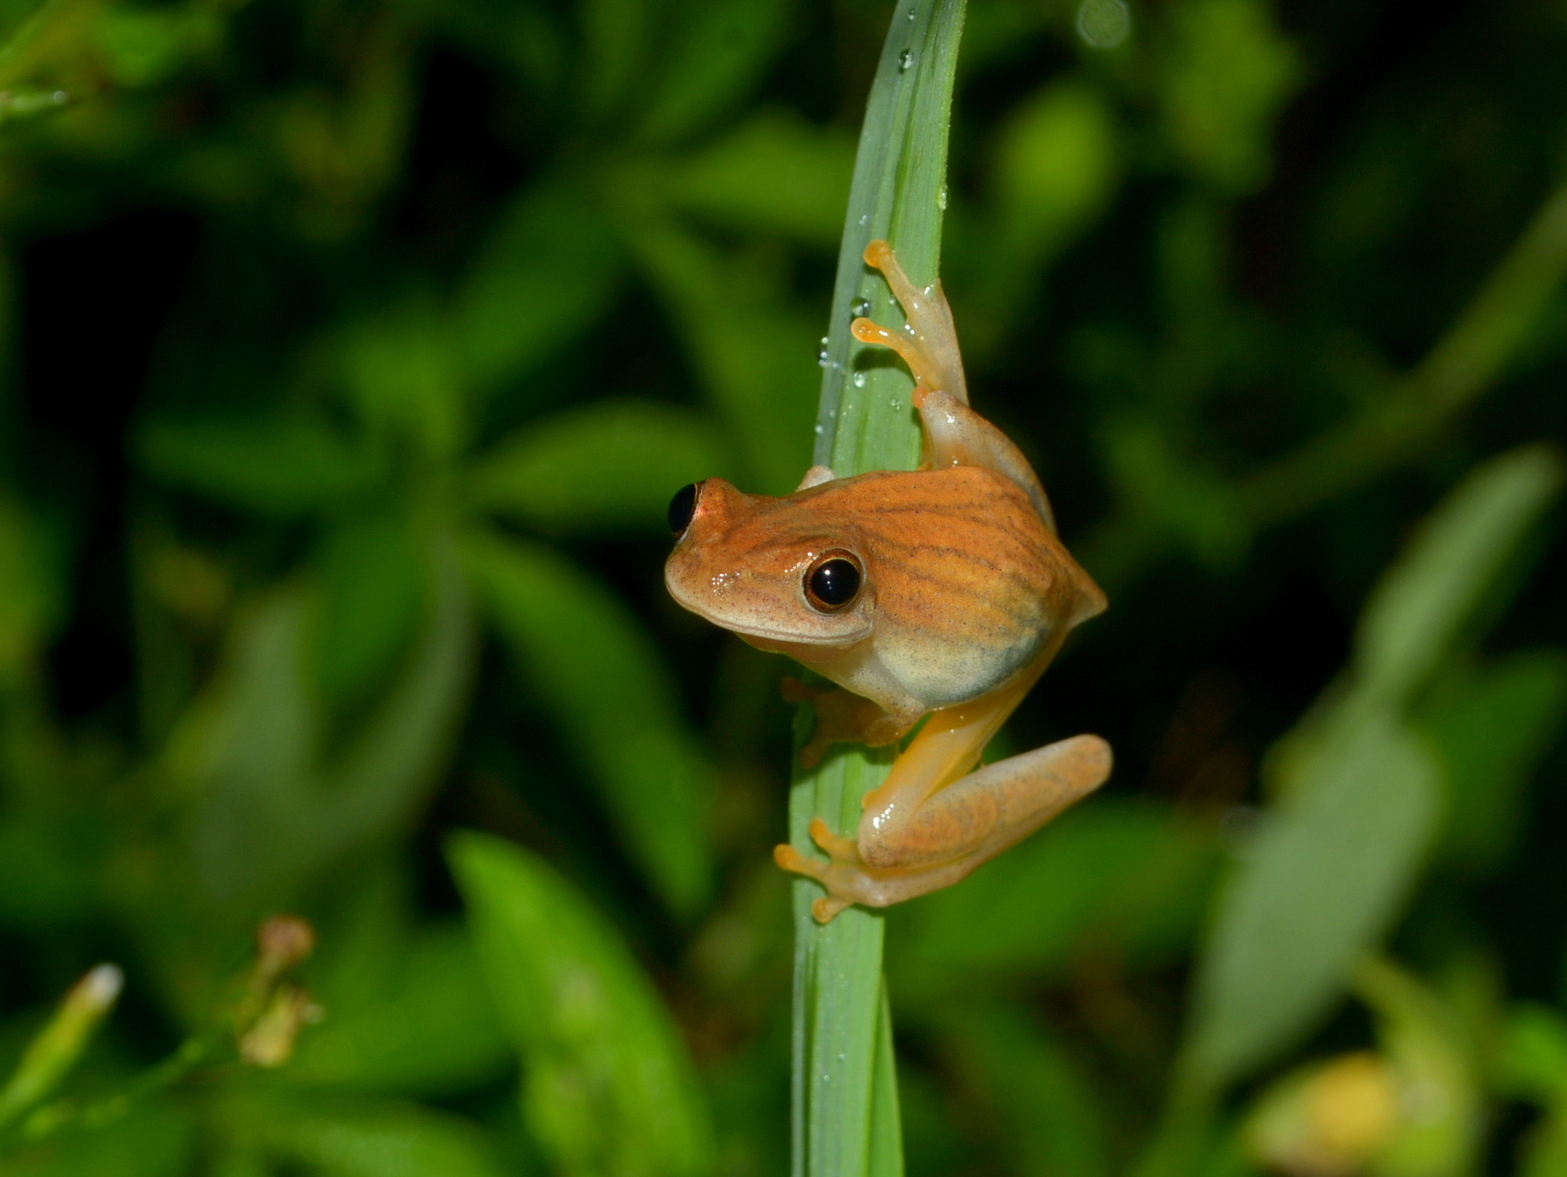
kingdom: Animalia
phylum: Chordata
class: Amphibia
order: Anura
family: Hylidae
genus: Dendropsophus
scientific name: Dendropsophus minutus
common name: Lesser treefrog
